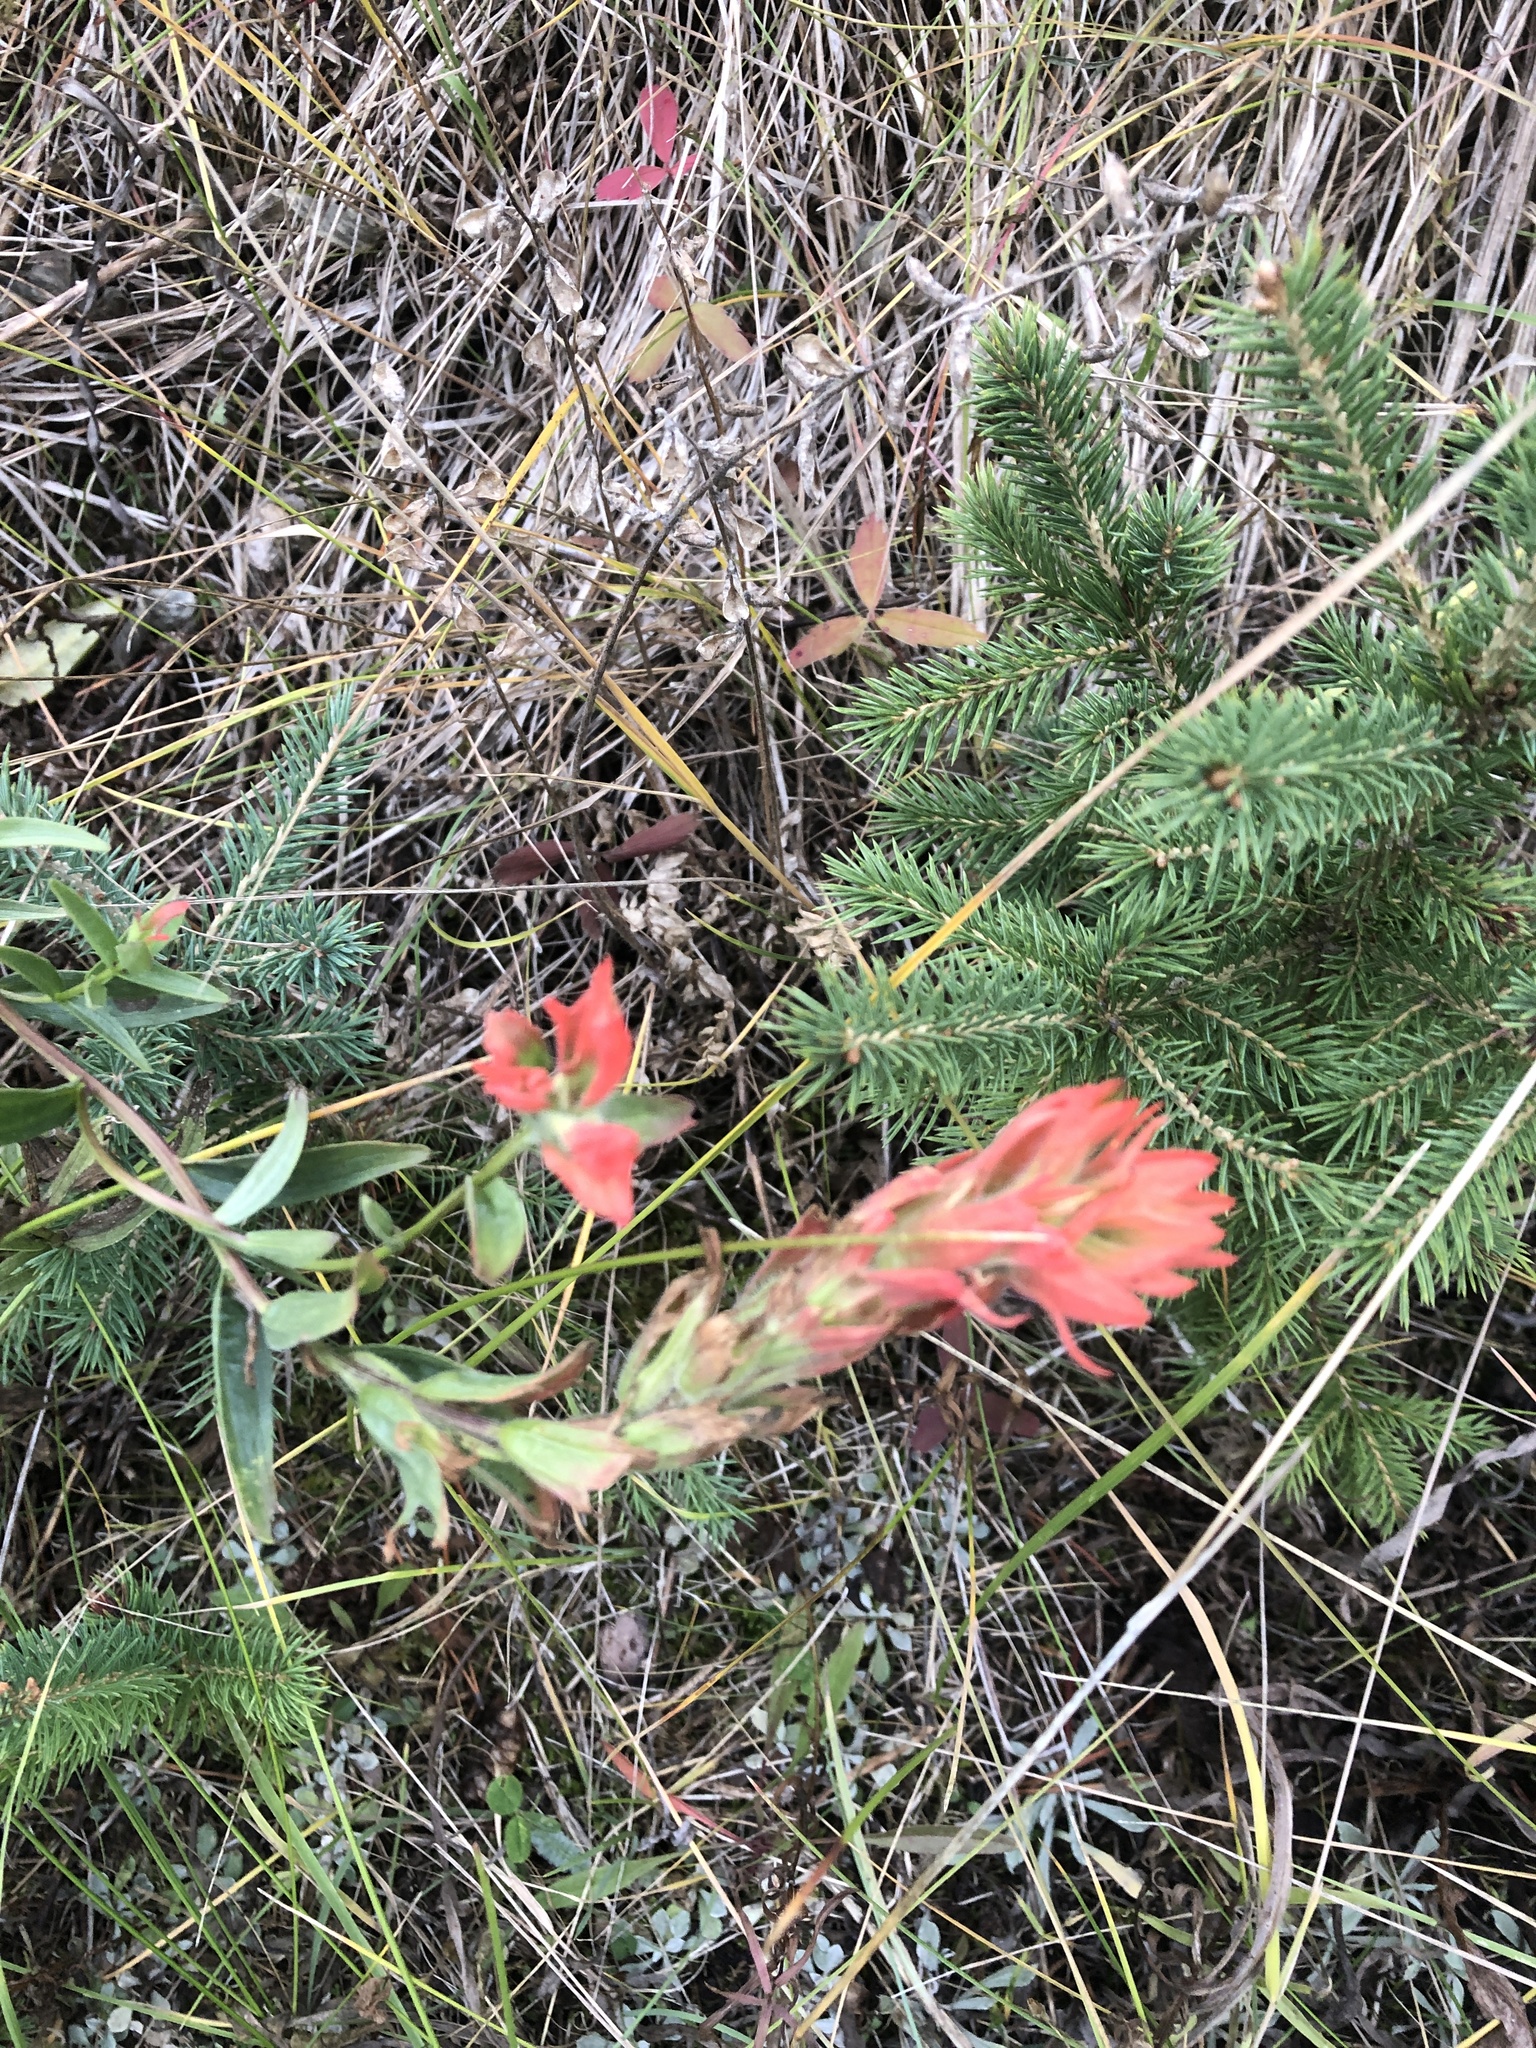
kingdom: Plantae
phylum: Tracheophyta
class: Magnoliopsida
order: Lamiales
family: Orobanchaceae
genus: Castilleja
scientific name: Castilleja miniata
